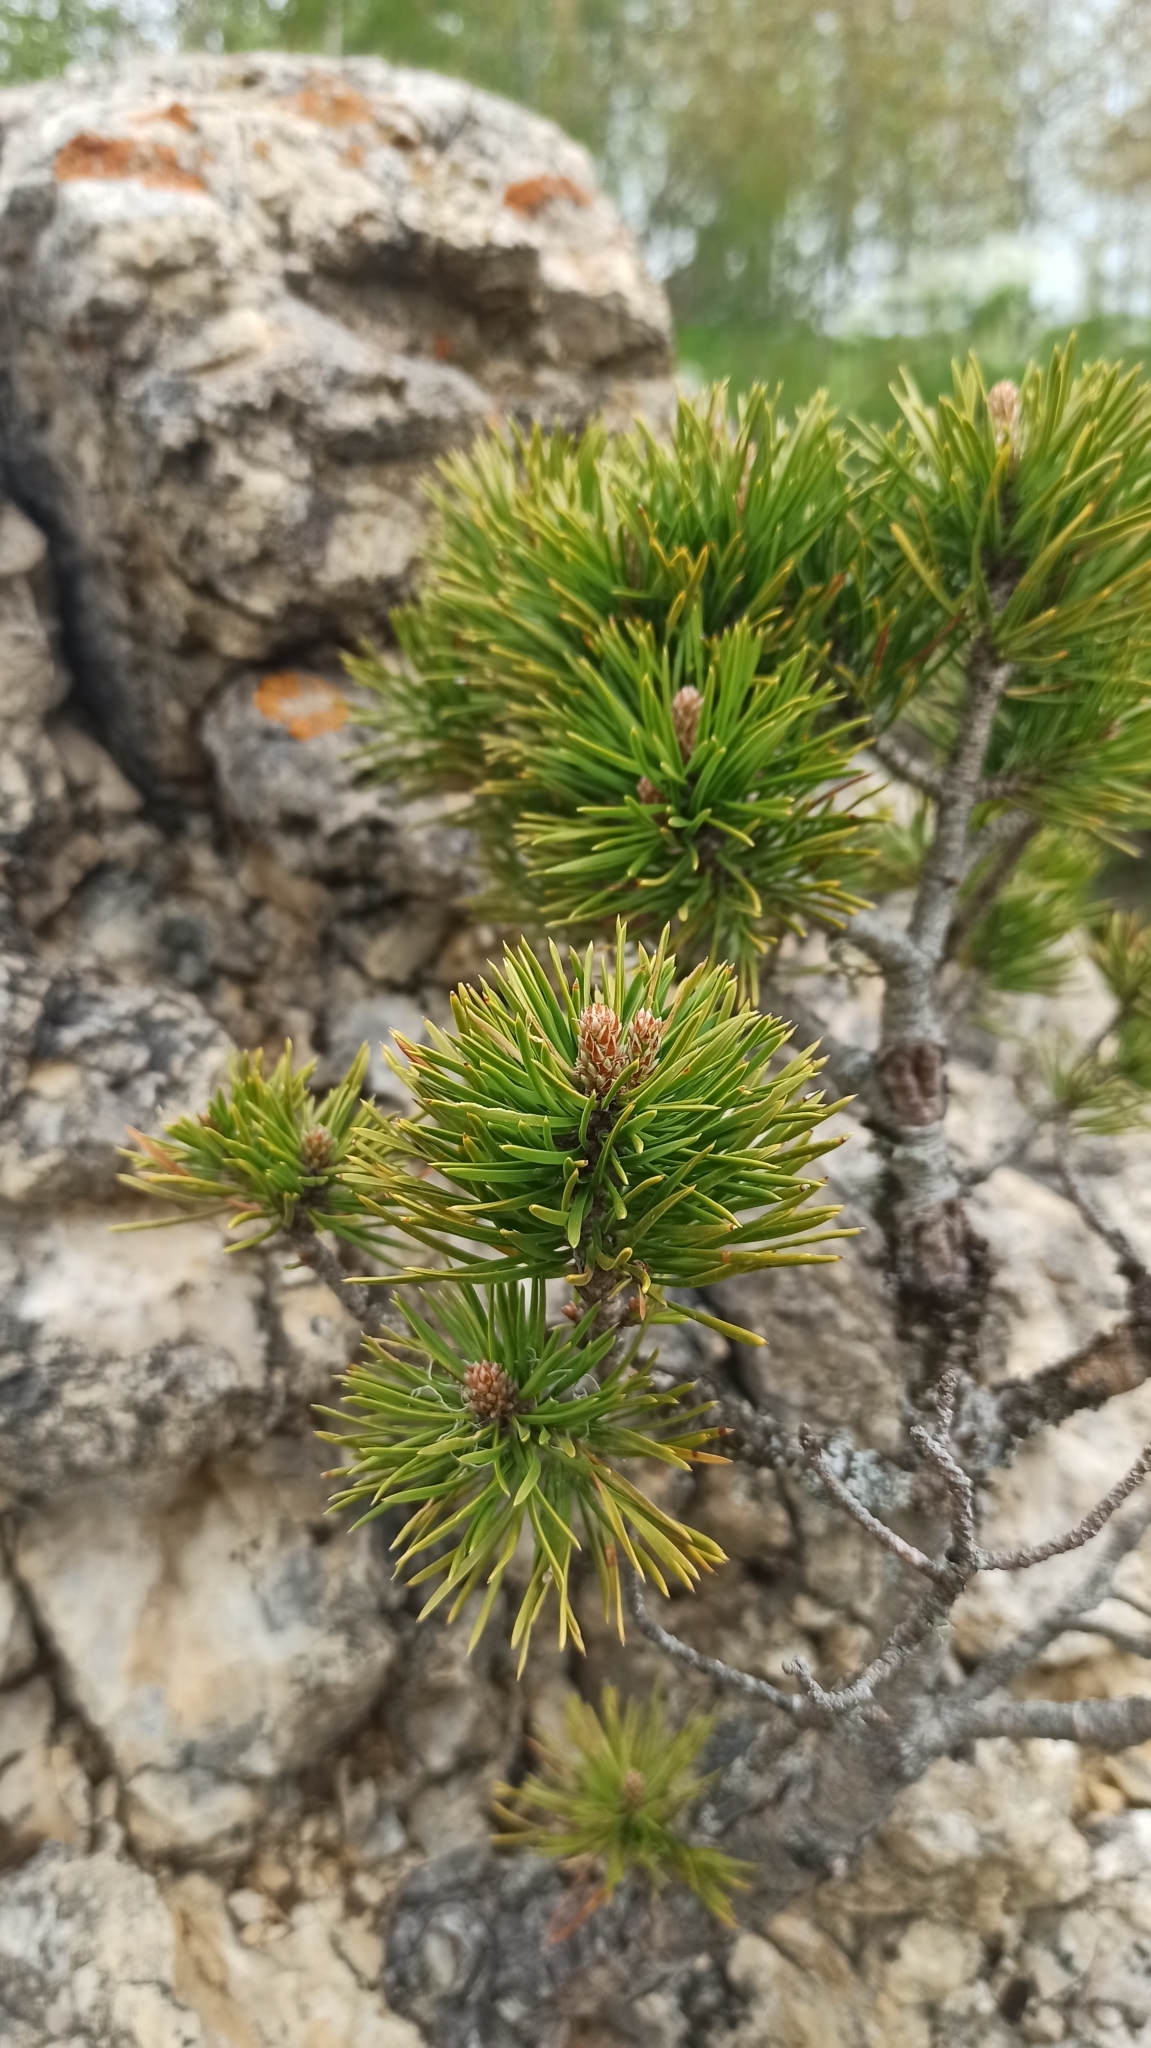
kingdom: Plantae
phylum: Tracheophyta
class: Pinopsida
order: Pinales
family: Pinaceae
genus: Pinus
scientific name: Pinus sylvestris
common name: Scots pine
